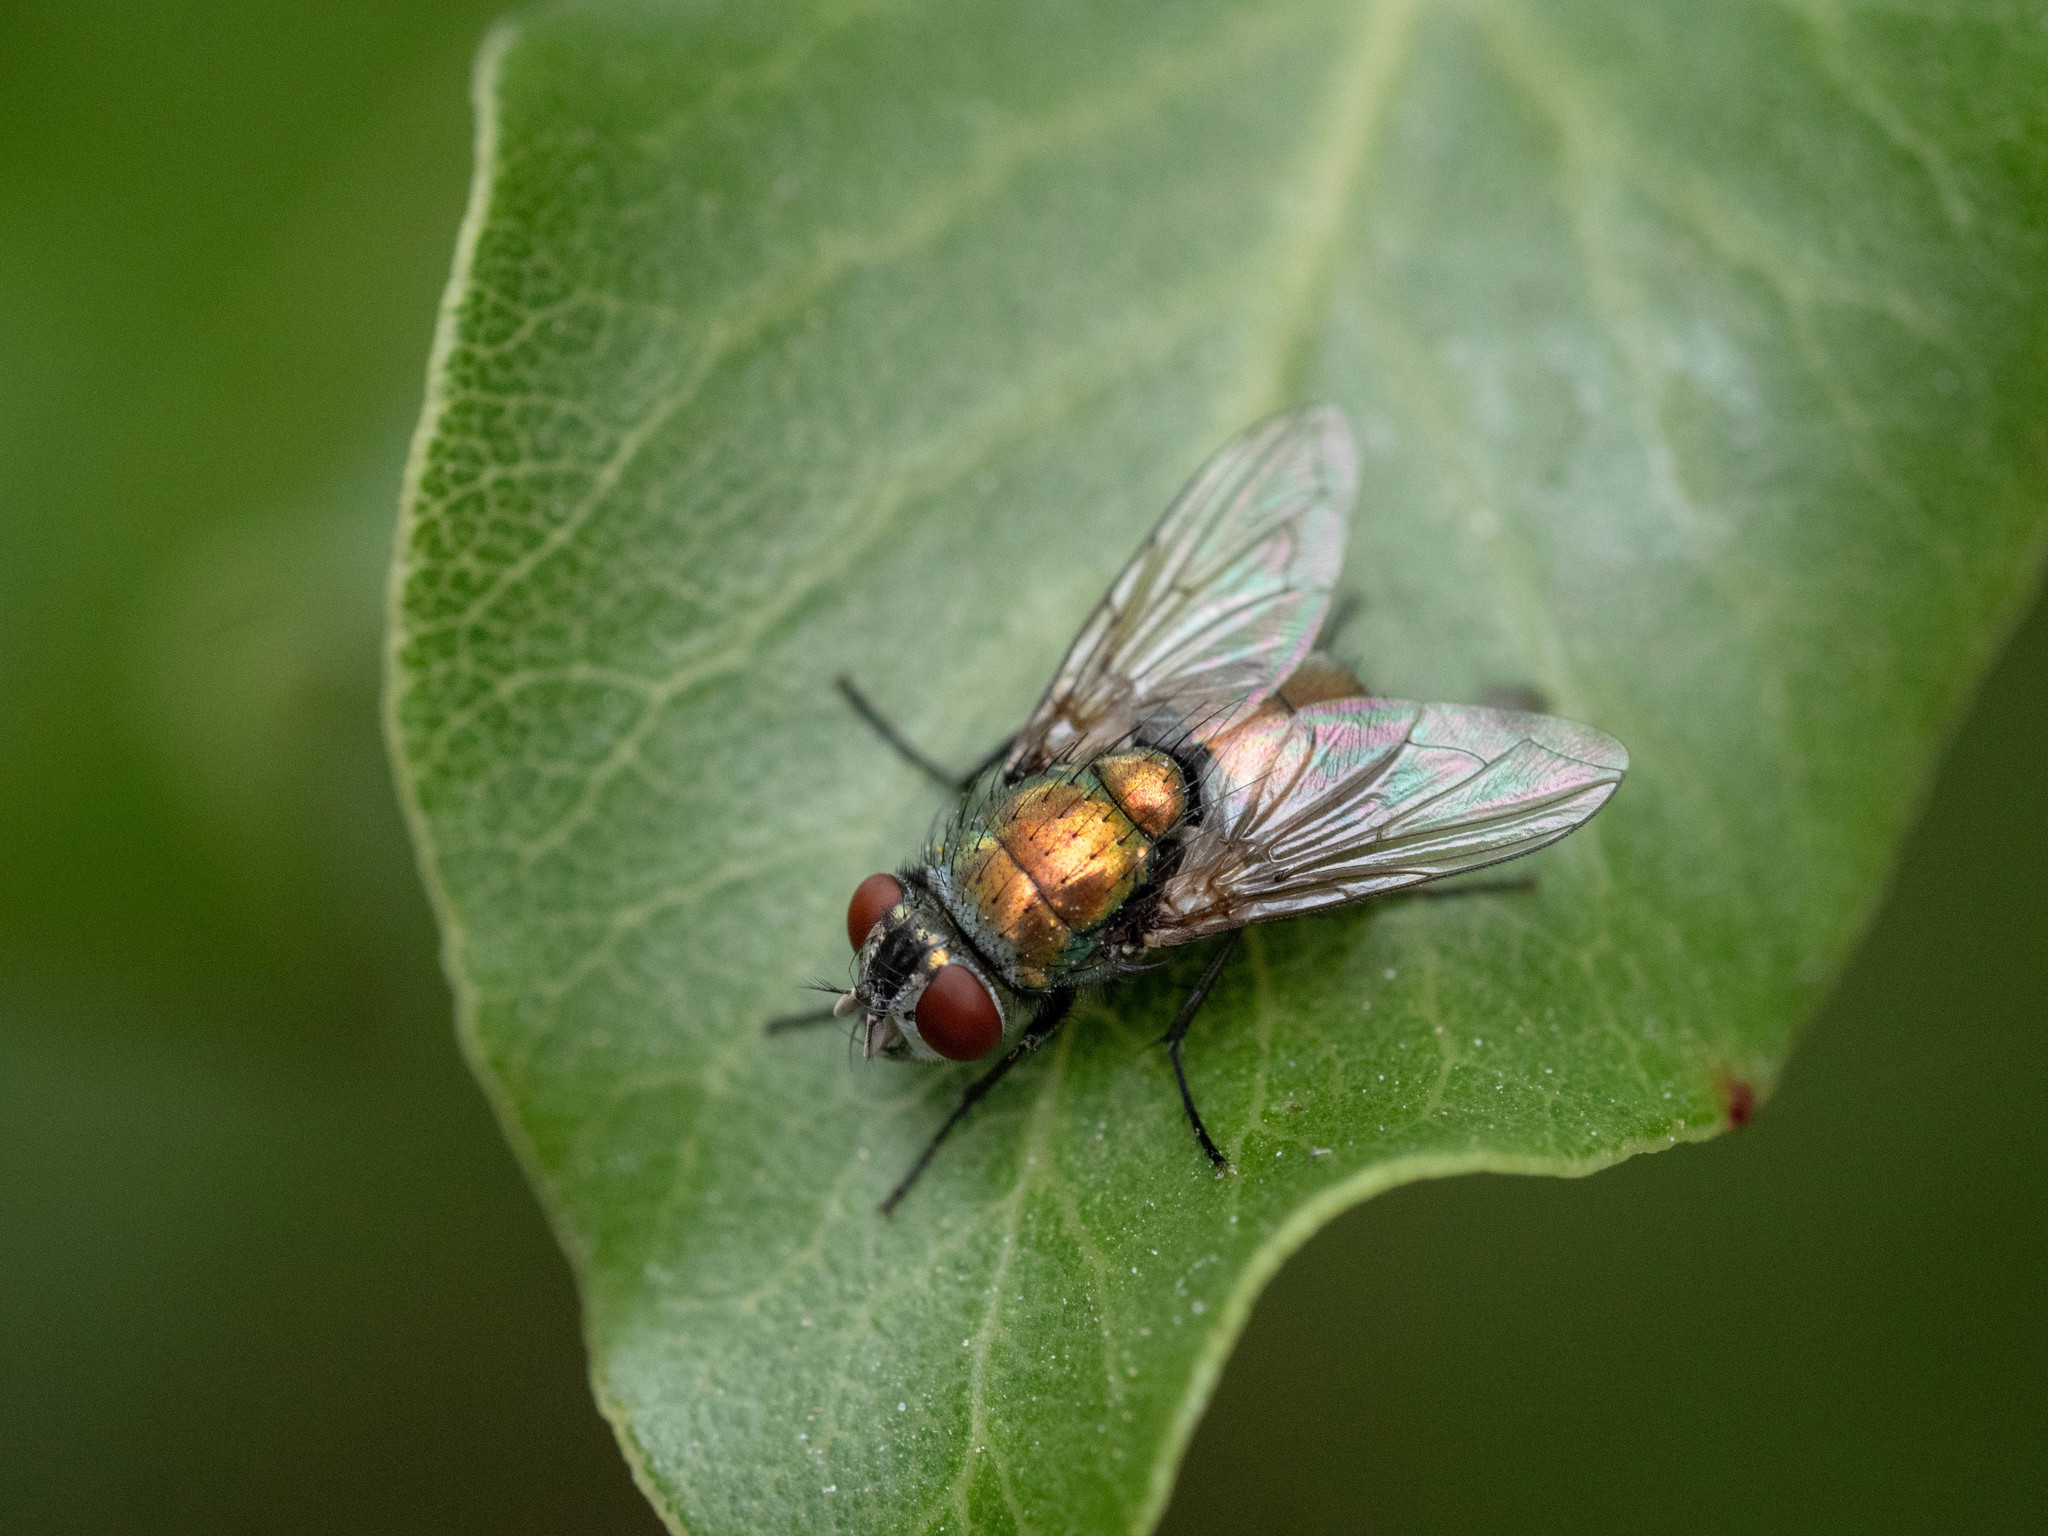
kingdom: Animalia
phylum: Arthropoda
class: Insecta
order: Diptera
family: Calliphoridae
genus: Lucilia
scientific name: Lucilia sericata
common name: Blow fly
